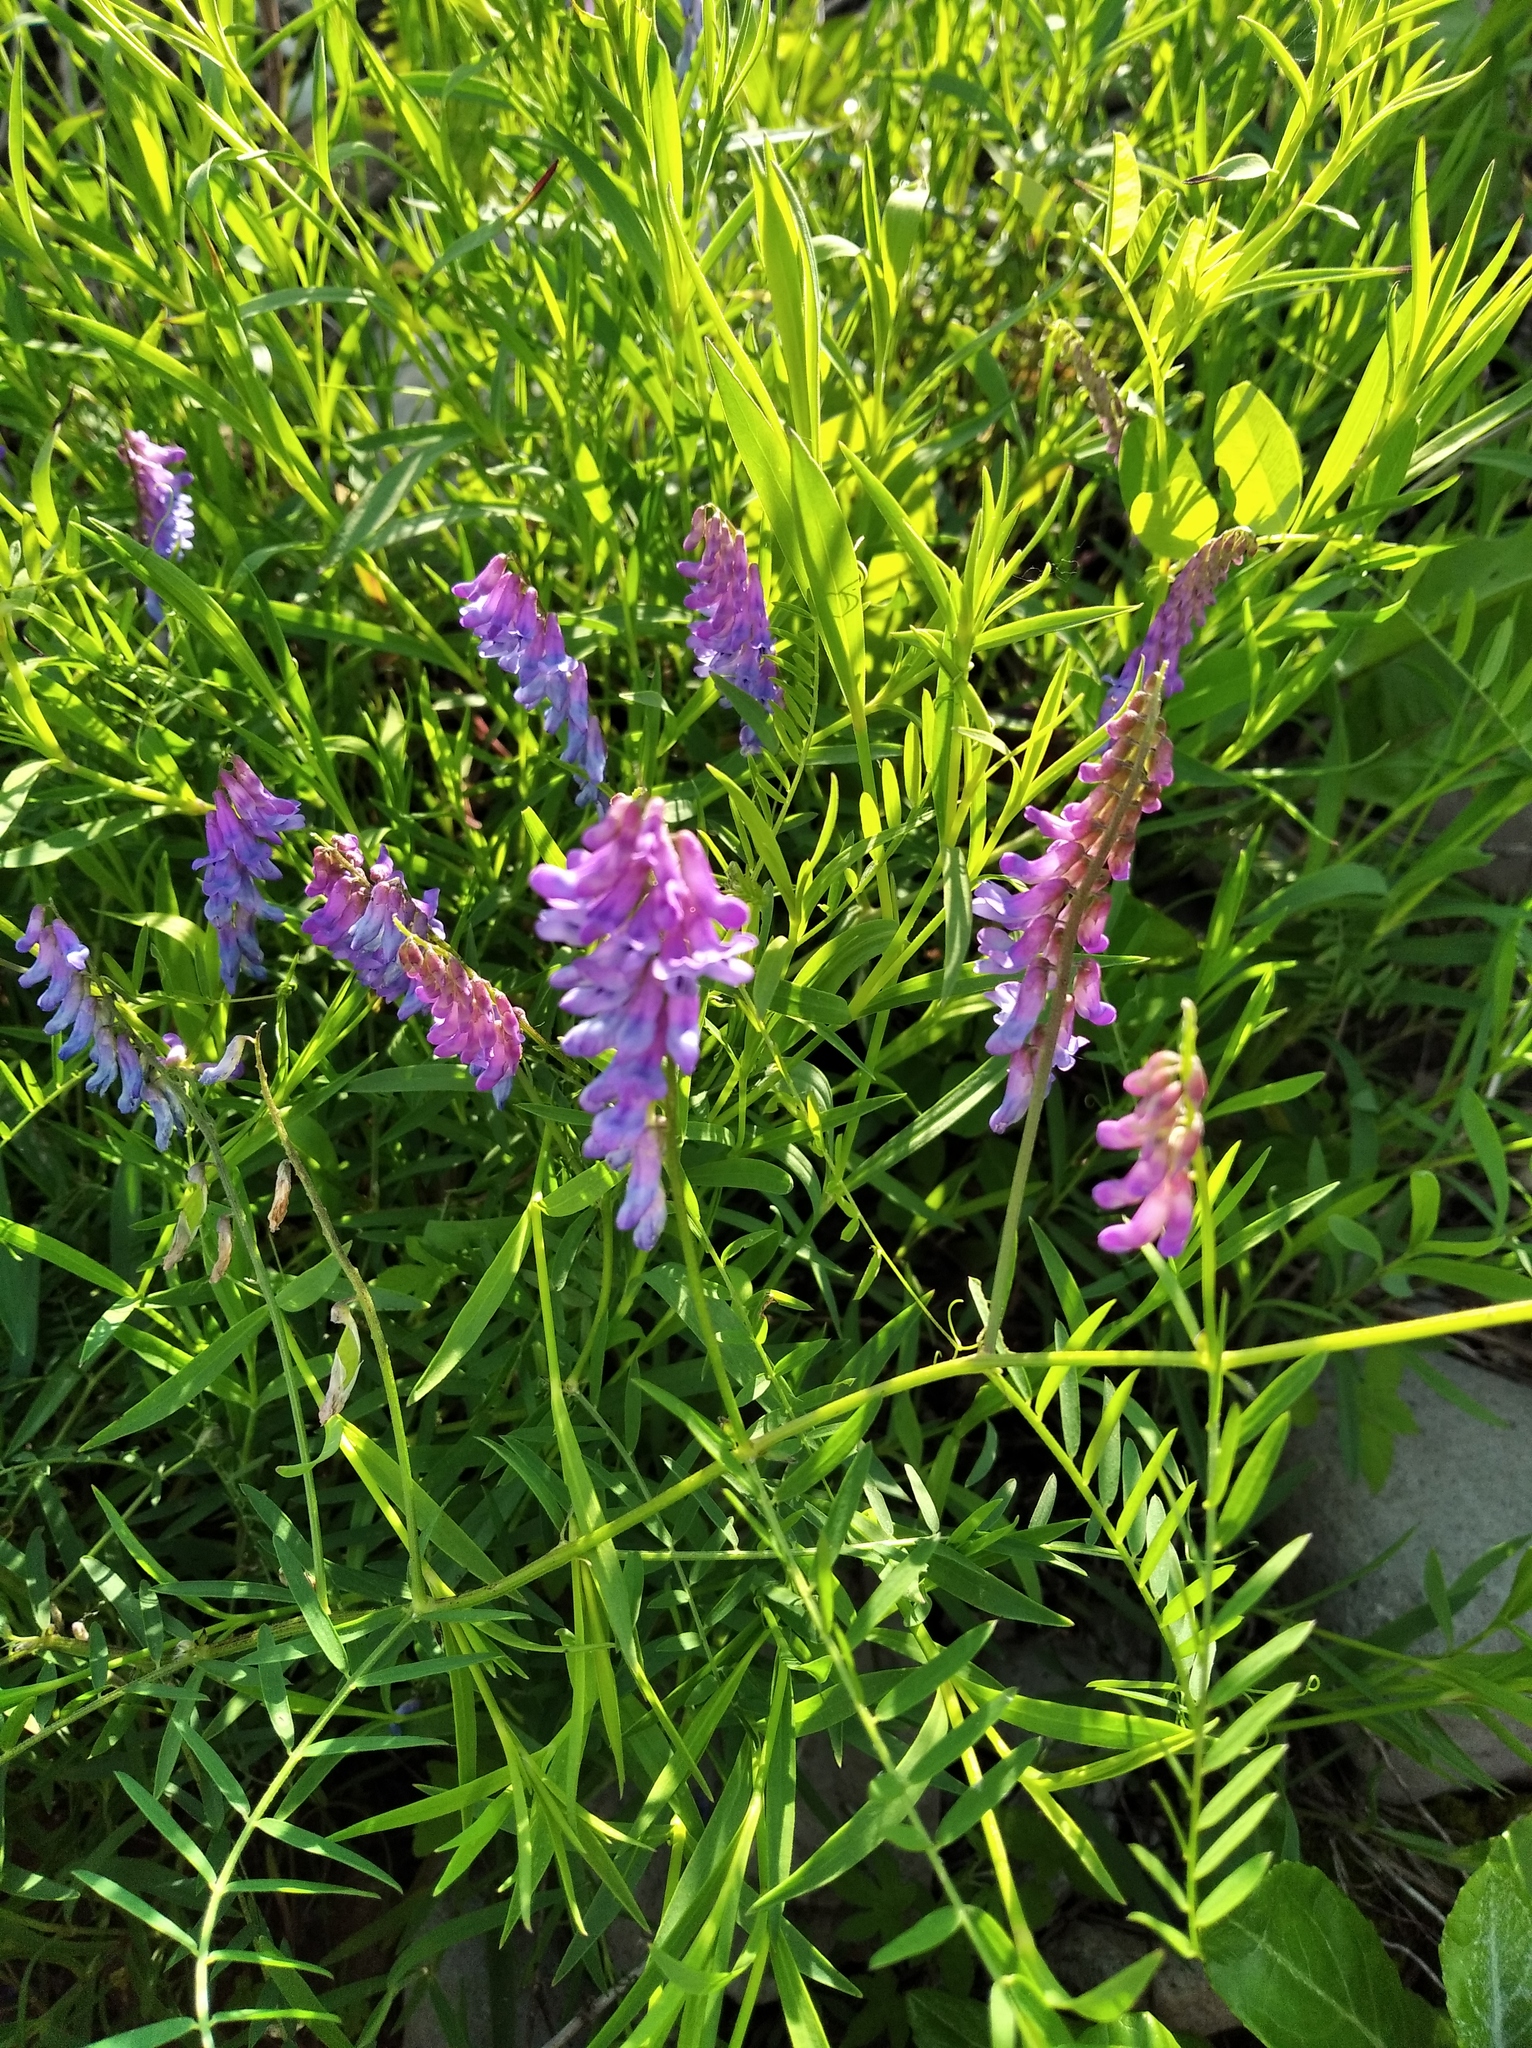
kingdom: Plantae
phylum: Tracheophyta
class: Magnoliopsida
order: Fabales
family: Fabaceae
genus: Vicia
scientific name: Vicia cracca
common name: Bird vetch
